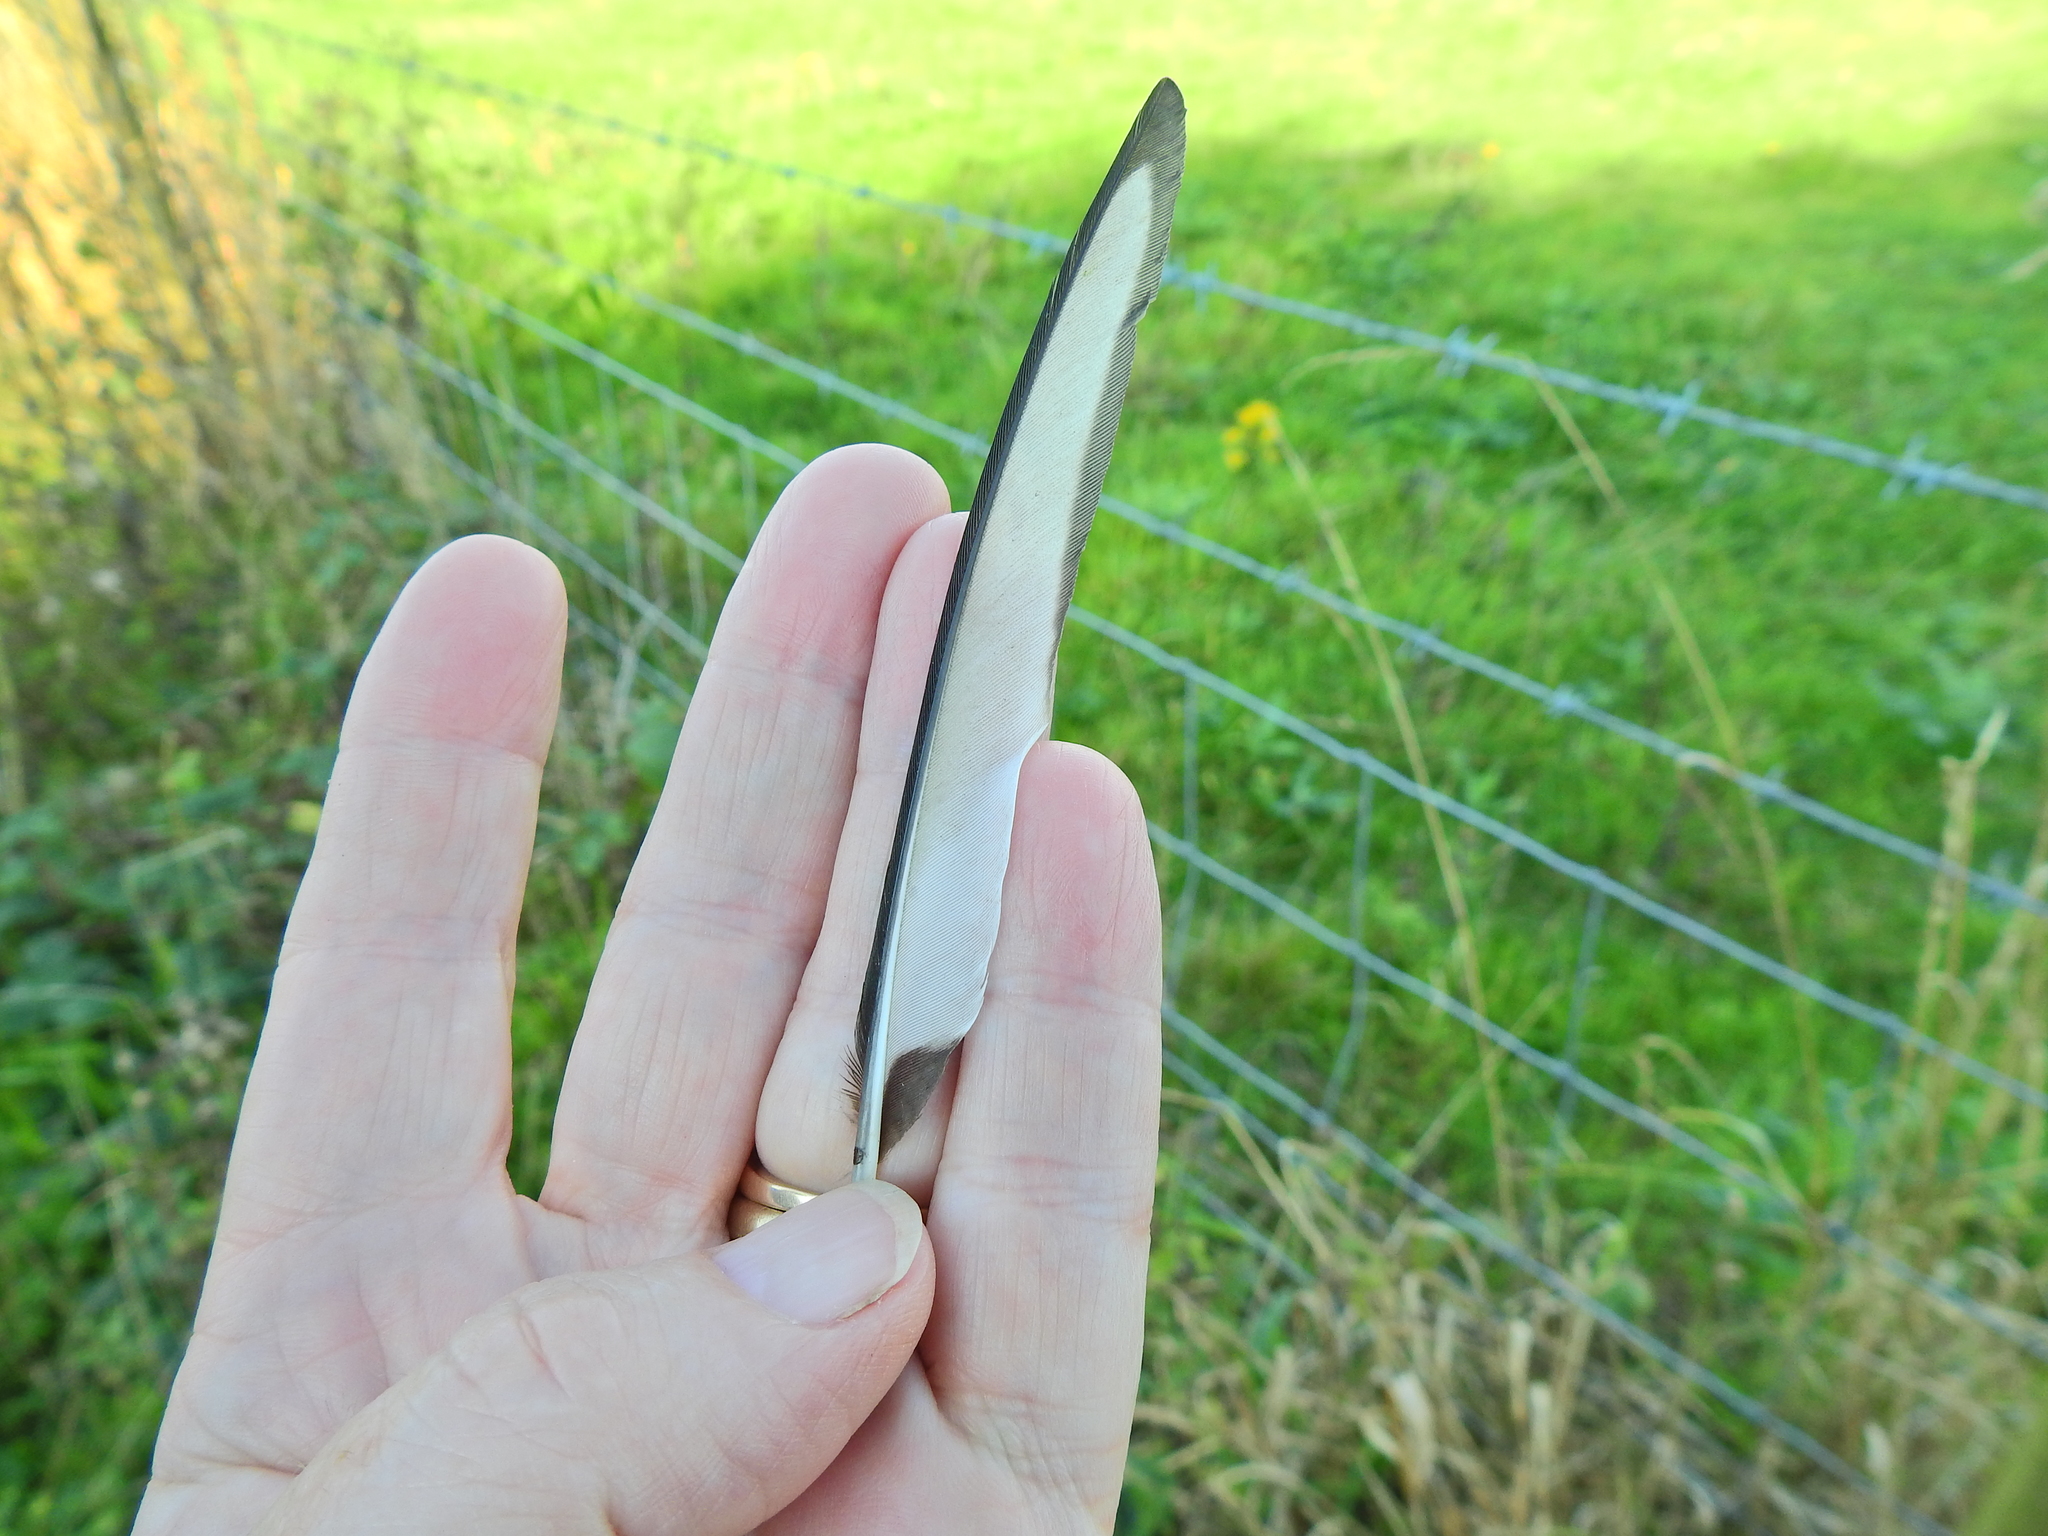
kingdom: Animalia
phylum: Chordata
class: Aves
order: Passeriformes
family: Corvidae
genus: Pica
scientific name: Pica pica
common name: Eurasian magpie
